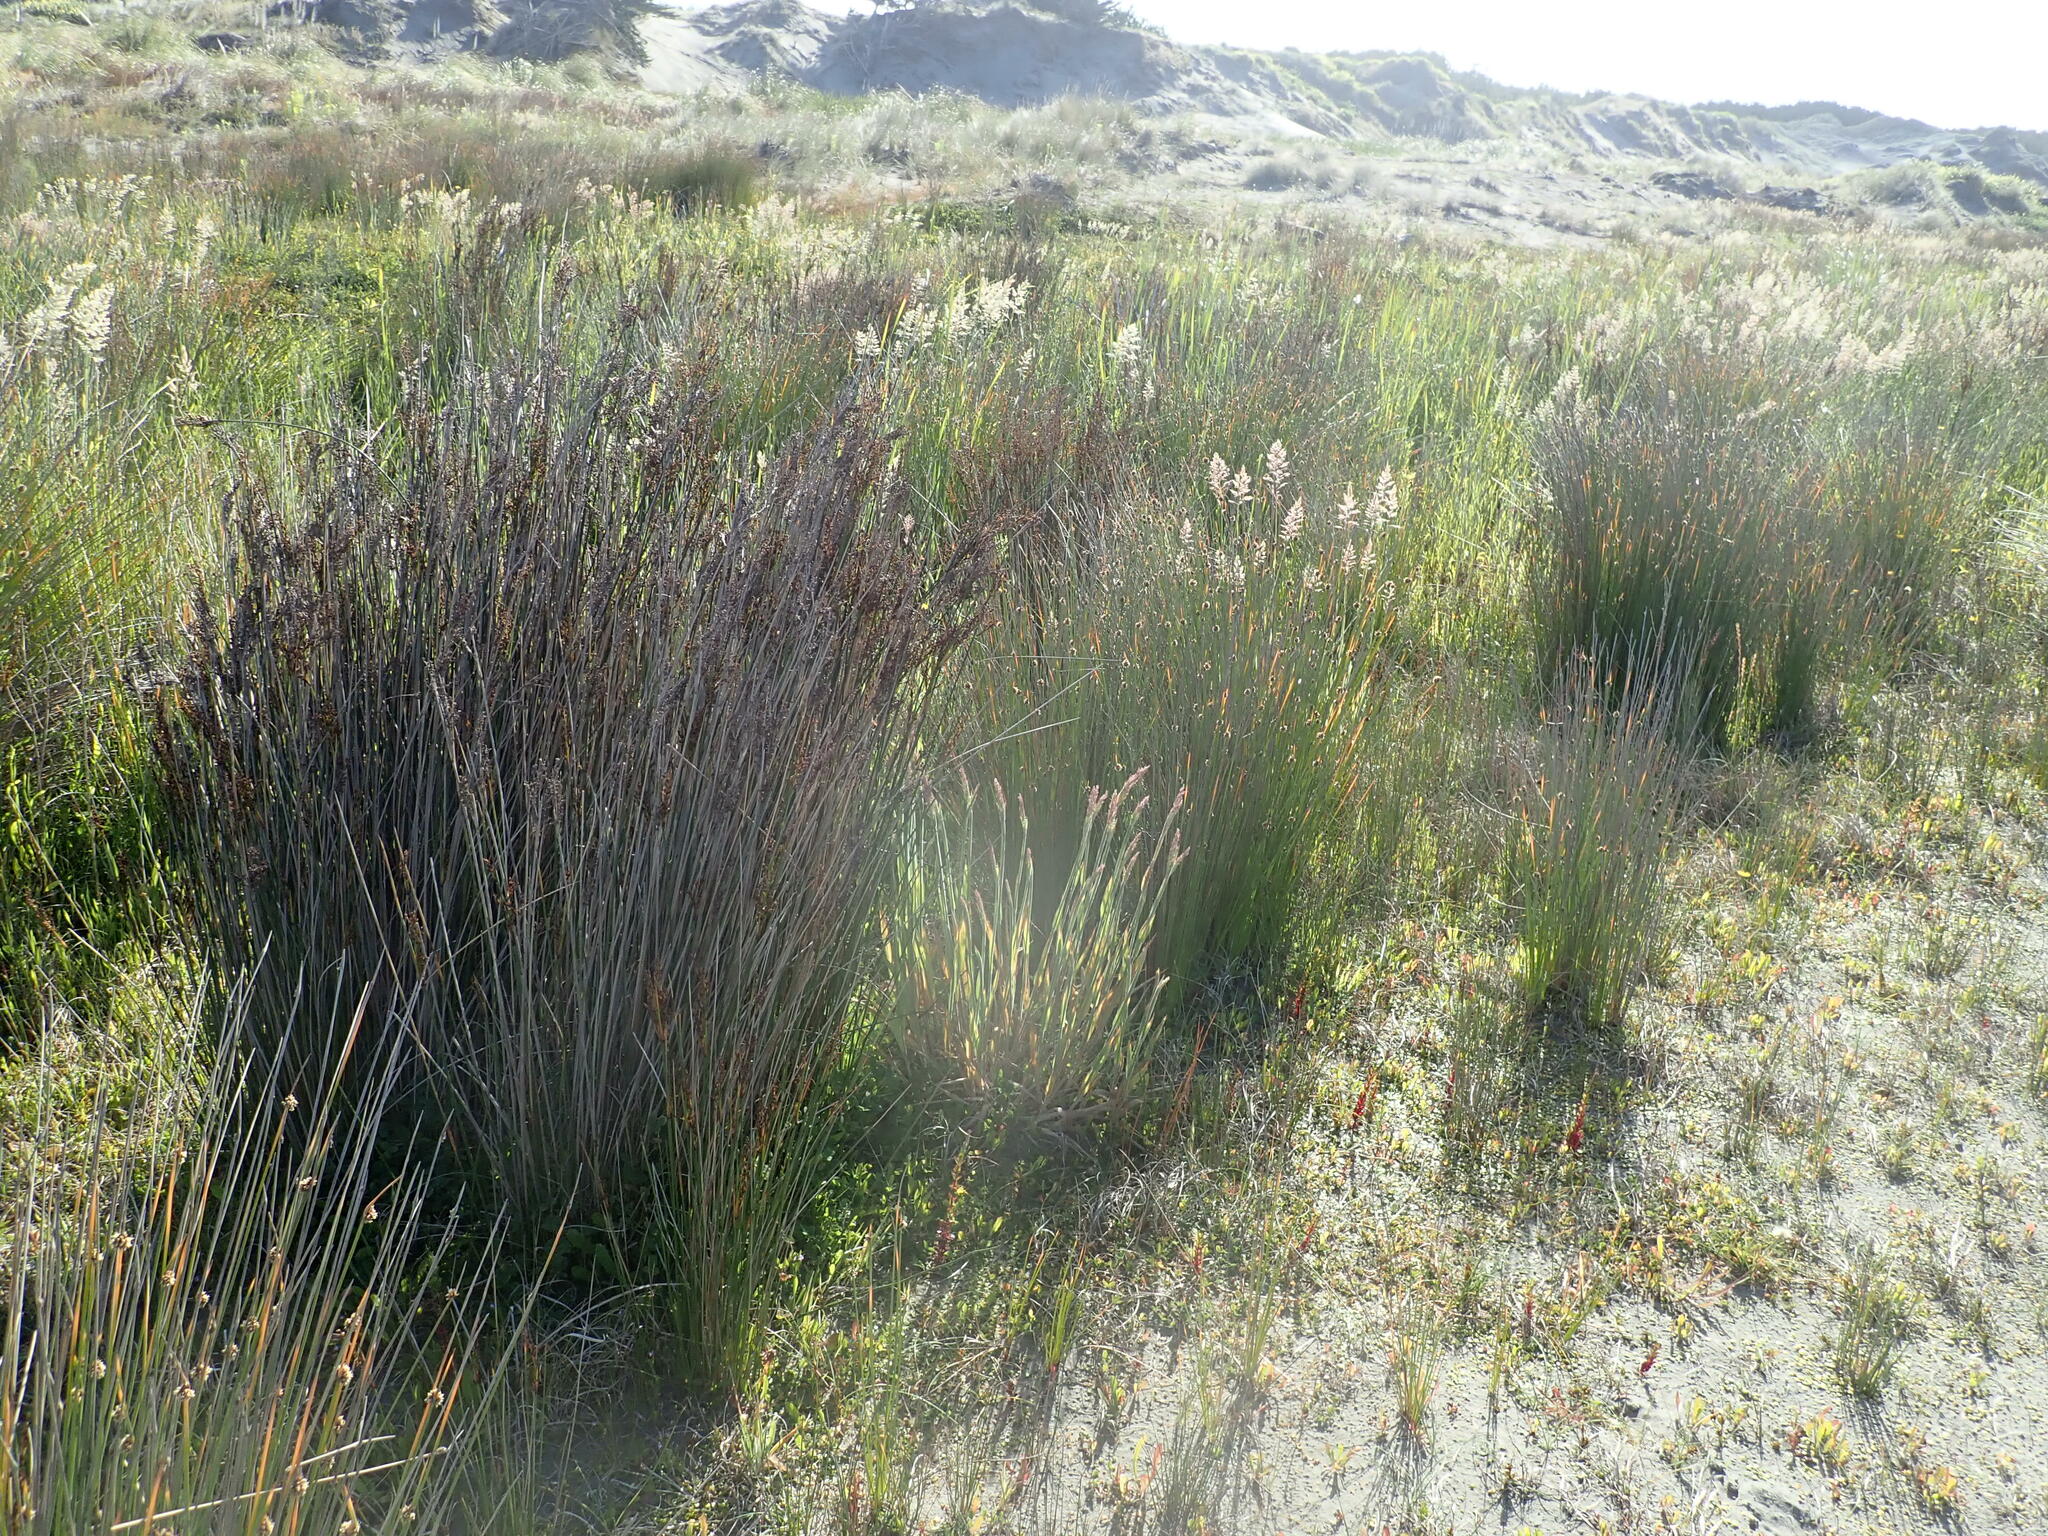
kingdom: Plantae
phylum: Tracheophyta
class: Liliopsida
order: Poales
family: Juncaceae
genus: Juncus
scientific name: Juncus kraussii
